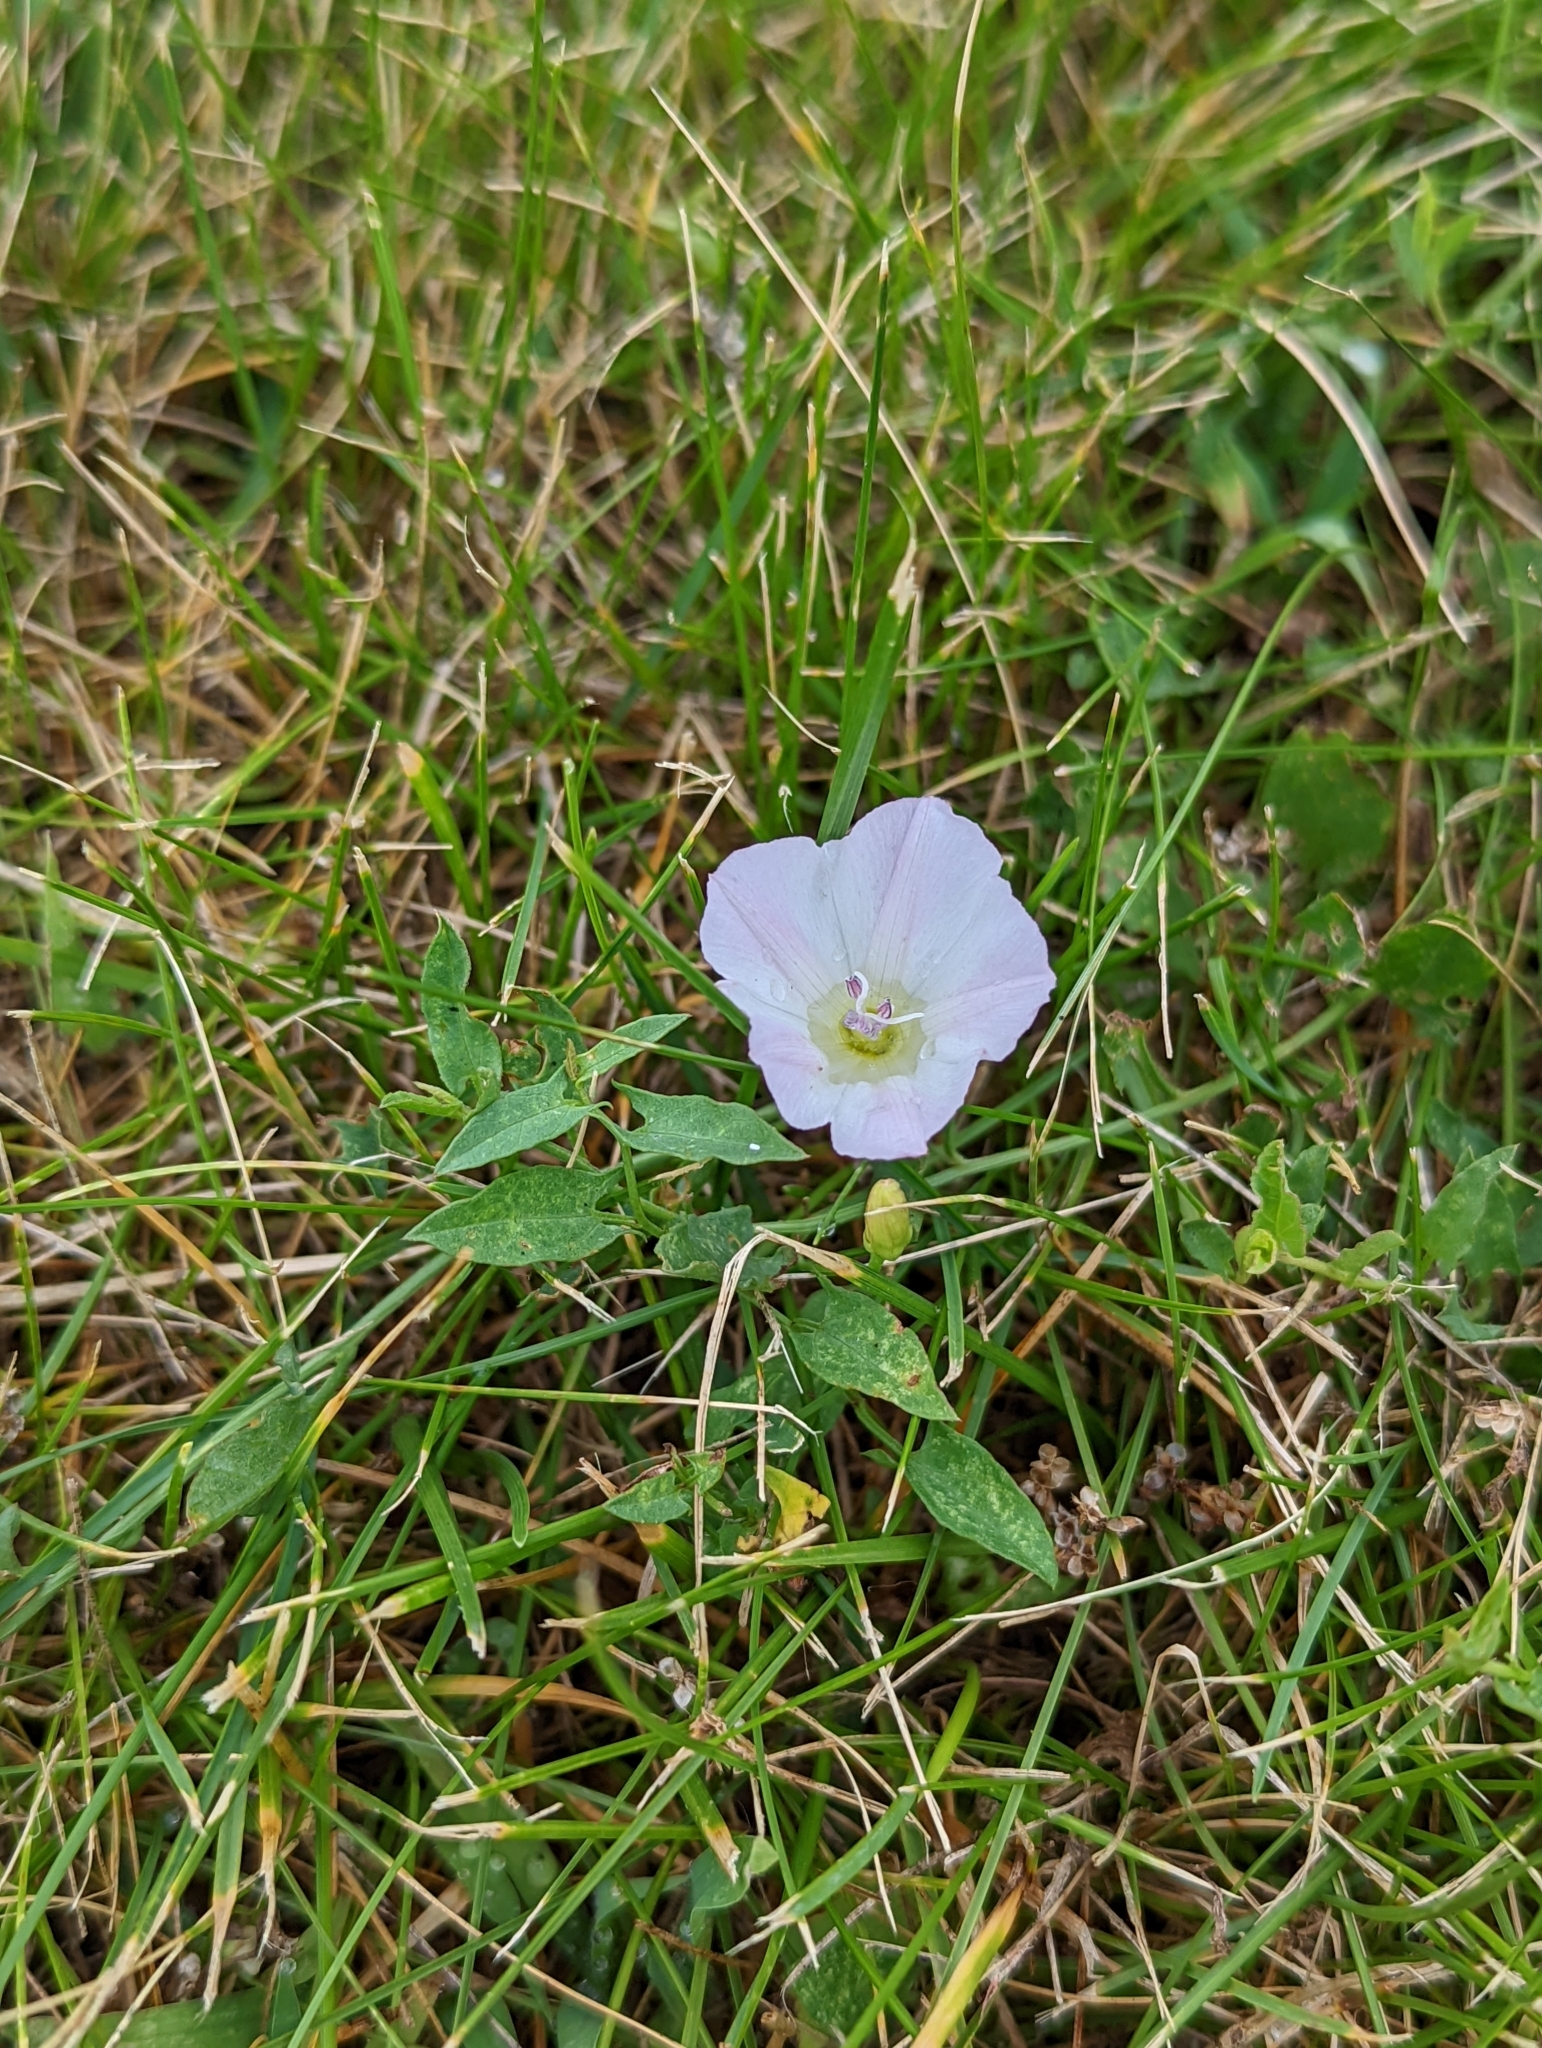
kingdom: Plantae
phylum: Tracheophyta
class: Magnoliopsida
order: Solanales
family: Convolvulaceae
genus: Convolvulus
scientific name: Convolvulus arvensis
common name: Field bindweed
